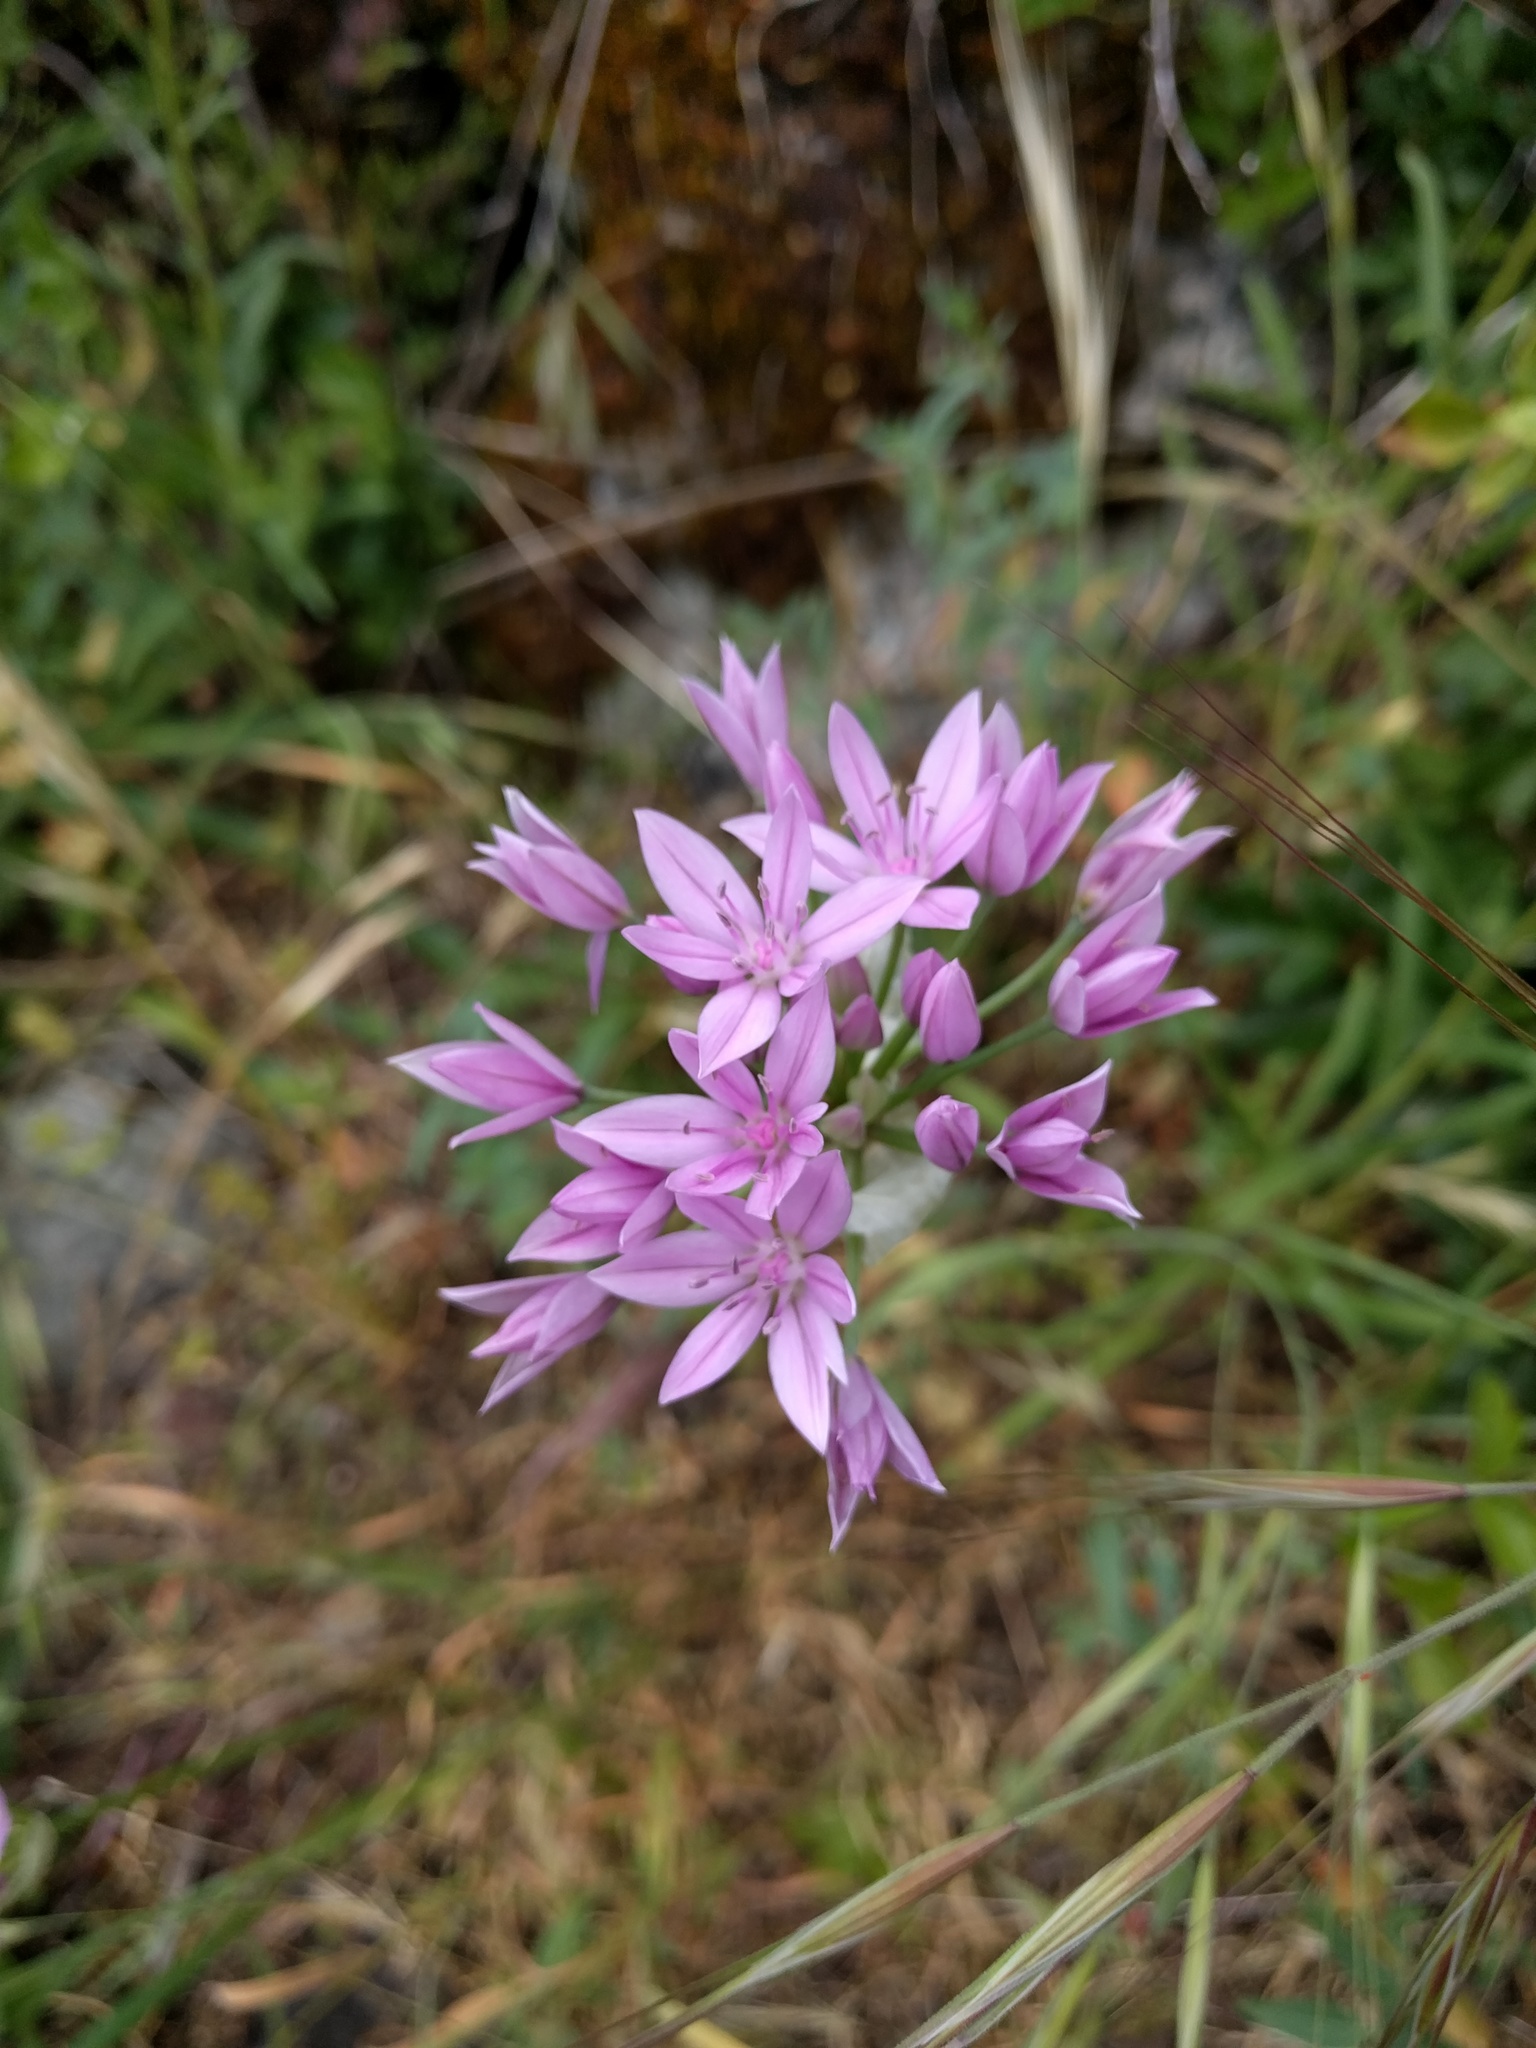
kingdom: Plantae
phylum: Tracheophyta
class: Liliopsida
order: Asparagales
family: Amaryllidaceae
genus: Allium
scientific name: Allium unifolium
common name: American garlic
